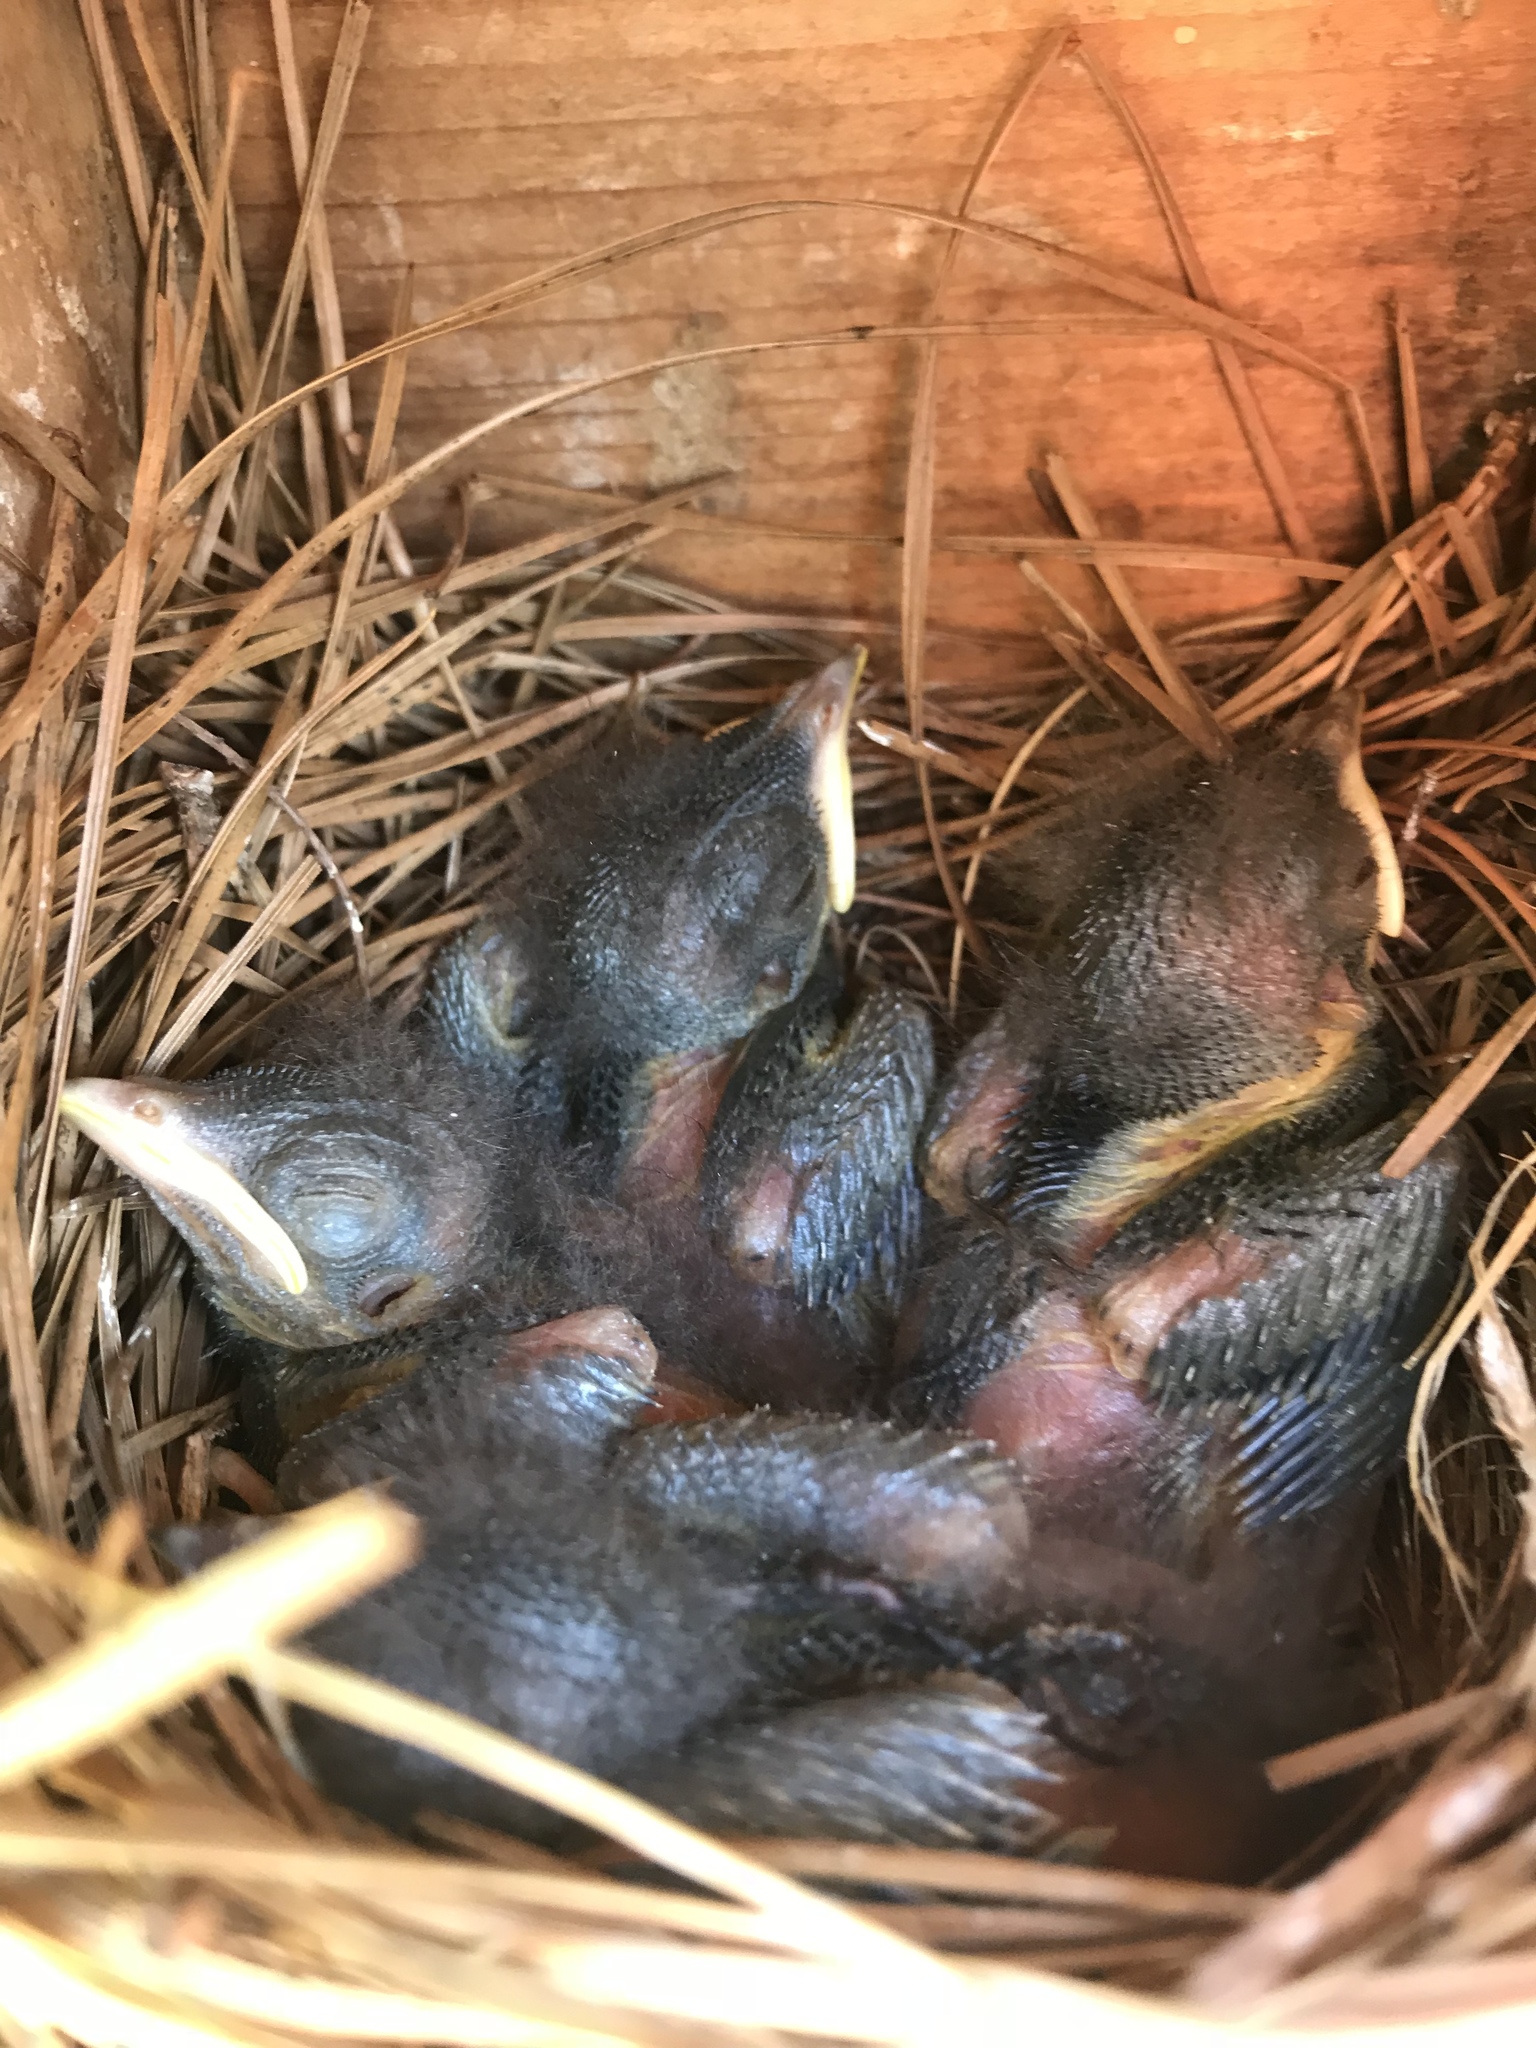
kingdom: Animalia
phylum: Chordata
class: Aves
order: Passeriformes
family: Turdidae
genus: Sialia
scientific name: Sialia sialis
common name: Eastern bluebird
